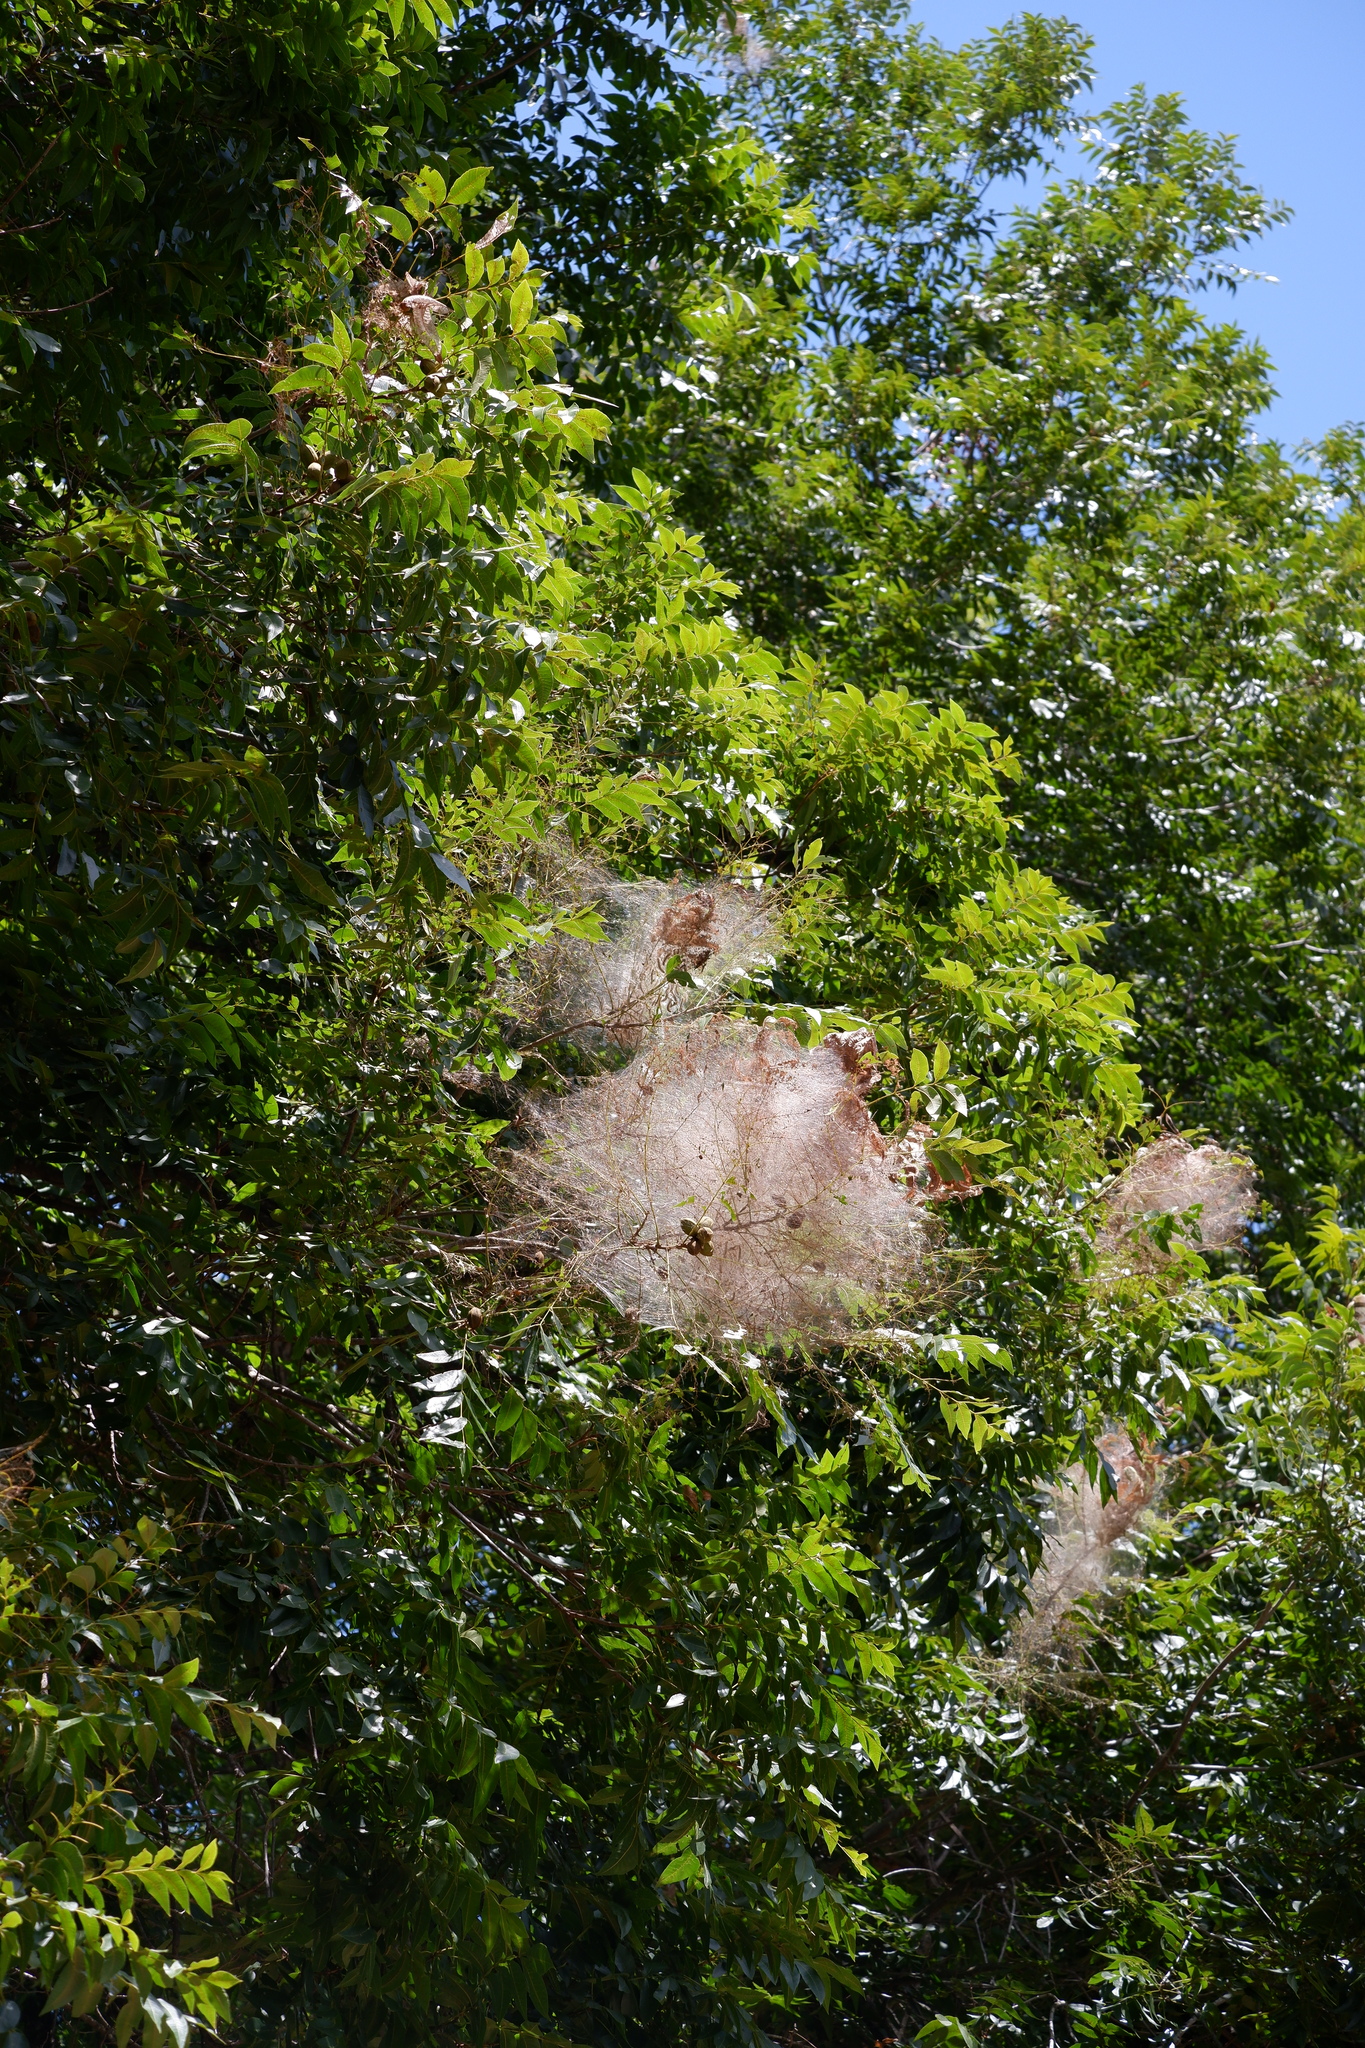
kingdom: Animalia
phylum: Arthropoda
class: Insecta
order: Lepidoptera
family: Erebidae
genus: Hyphantria
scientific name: Hyphantria cunea
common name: American white moth
